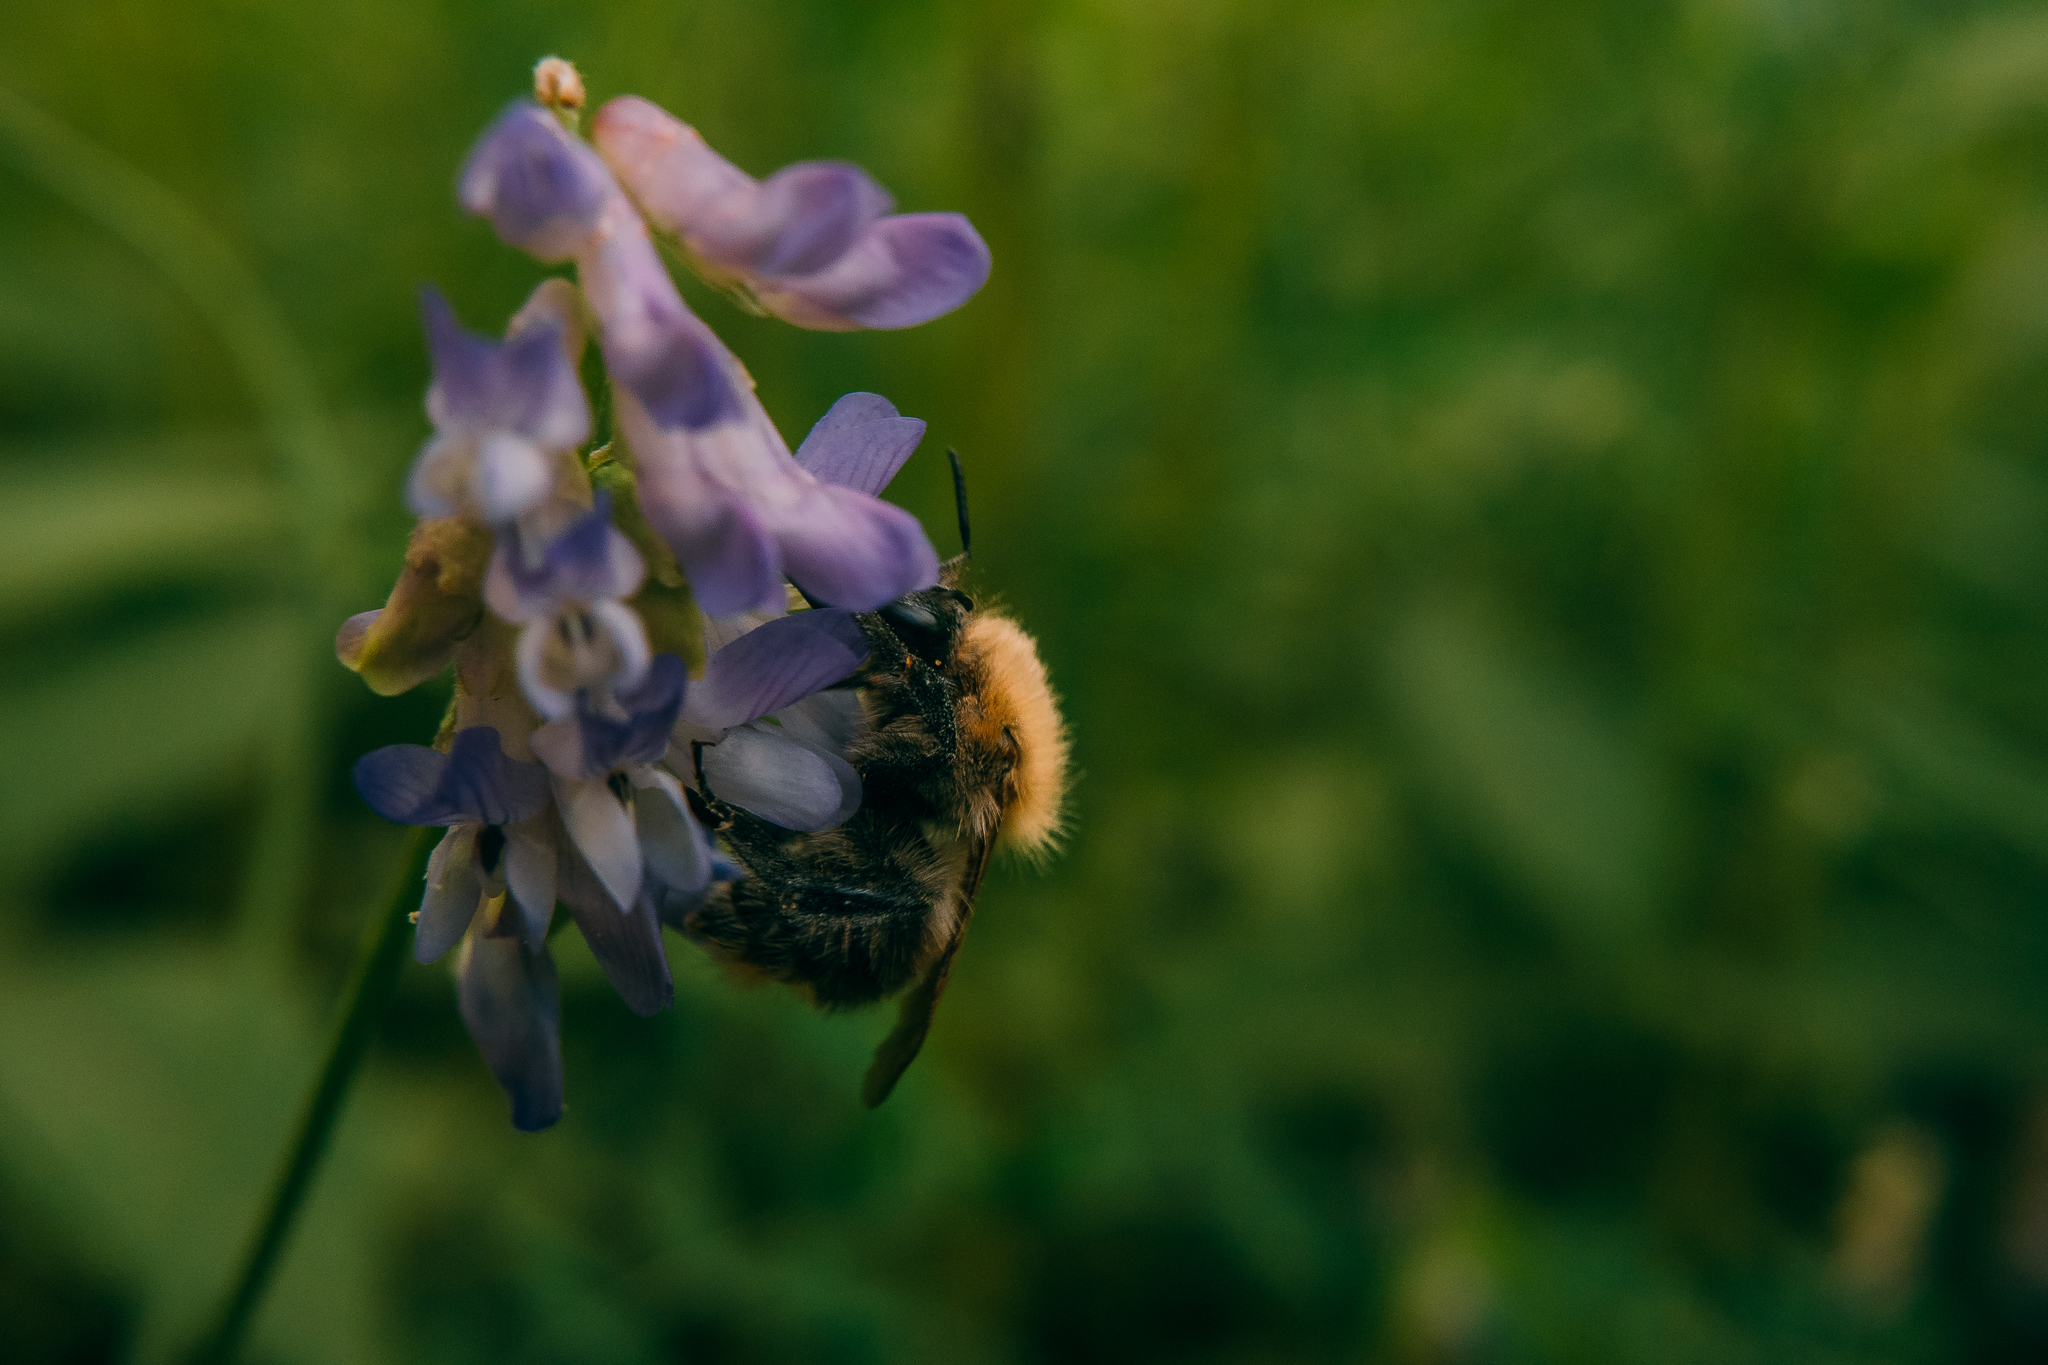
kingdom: Animalia
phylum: Arthropoda
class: Insecta
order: Hymenoptera
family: Apidae
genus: Bombus
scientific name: Bombus pascuorum
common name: Common carder bee
